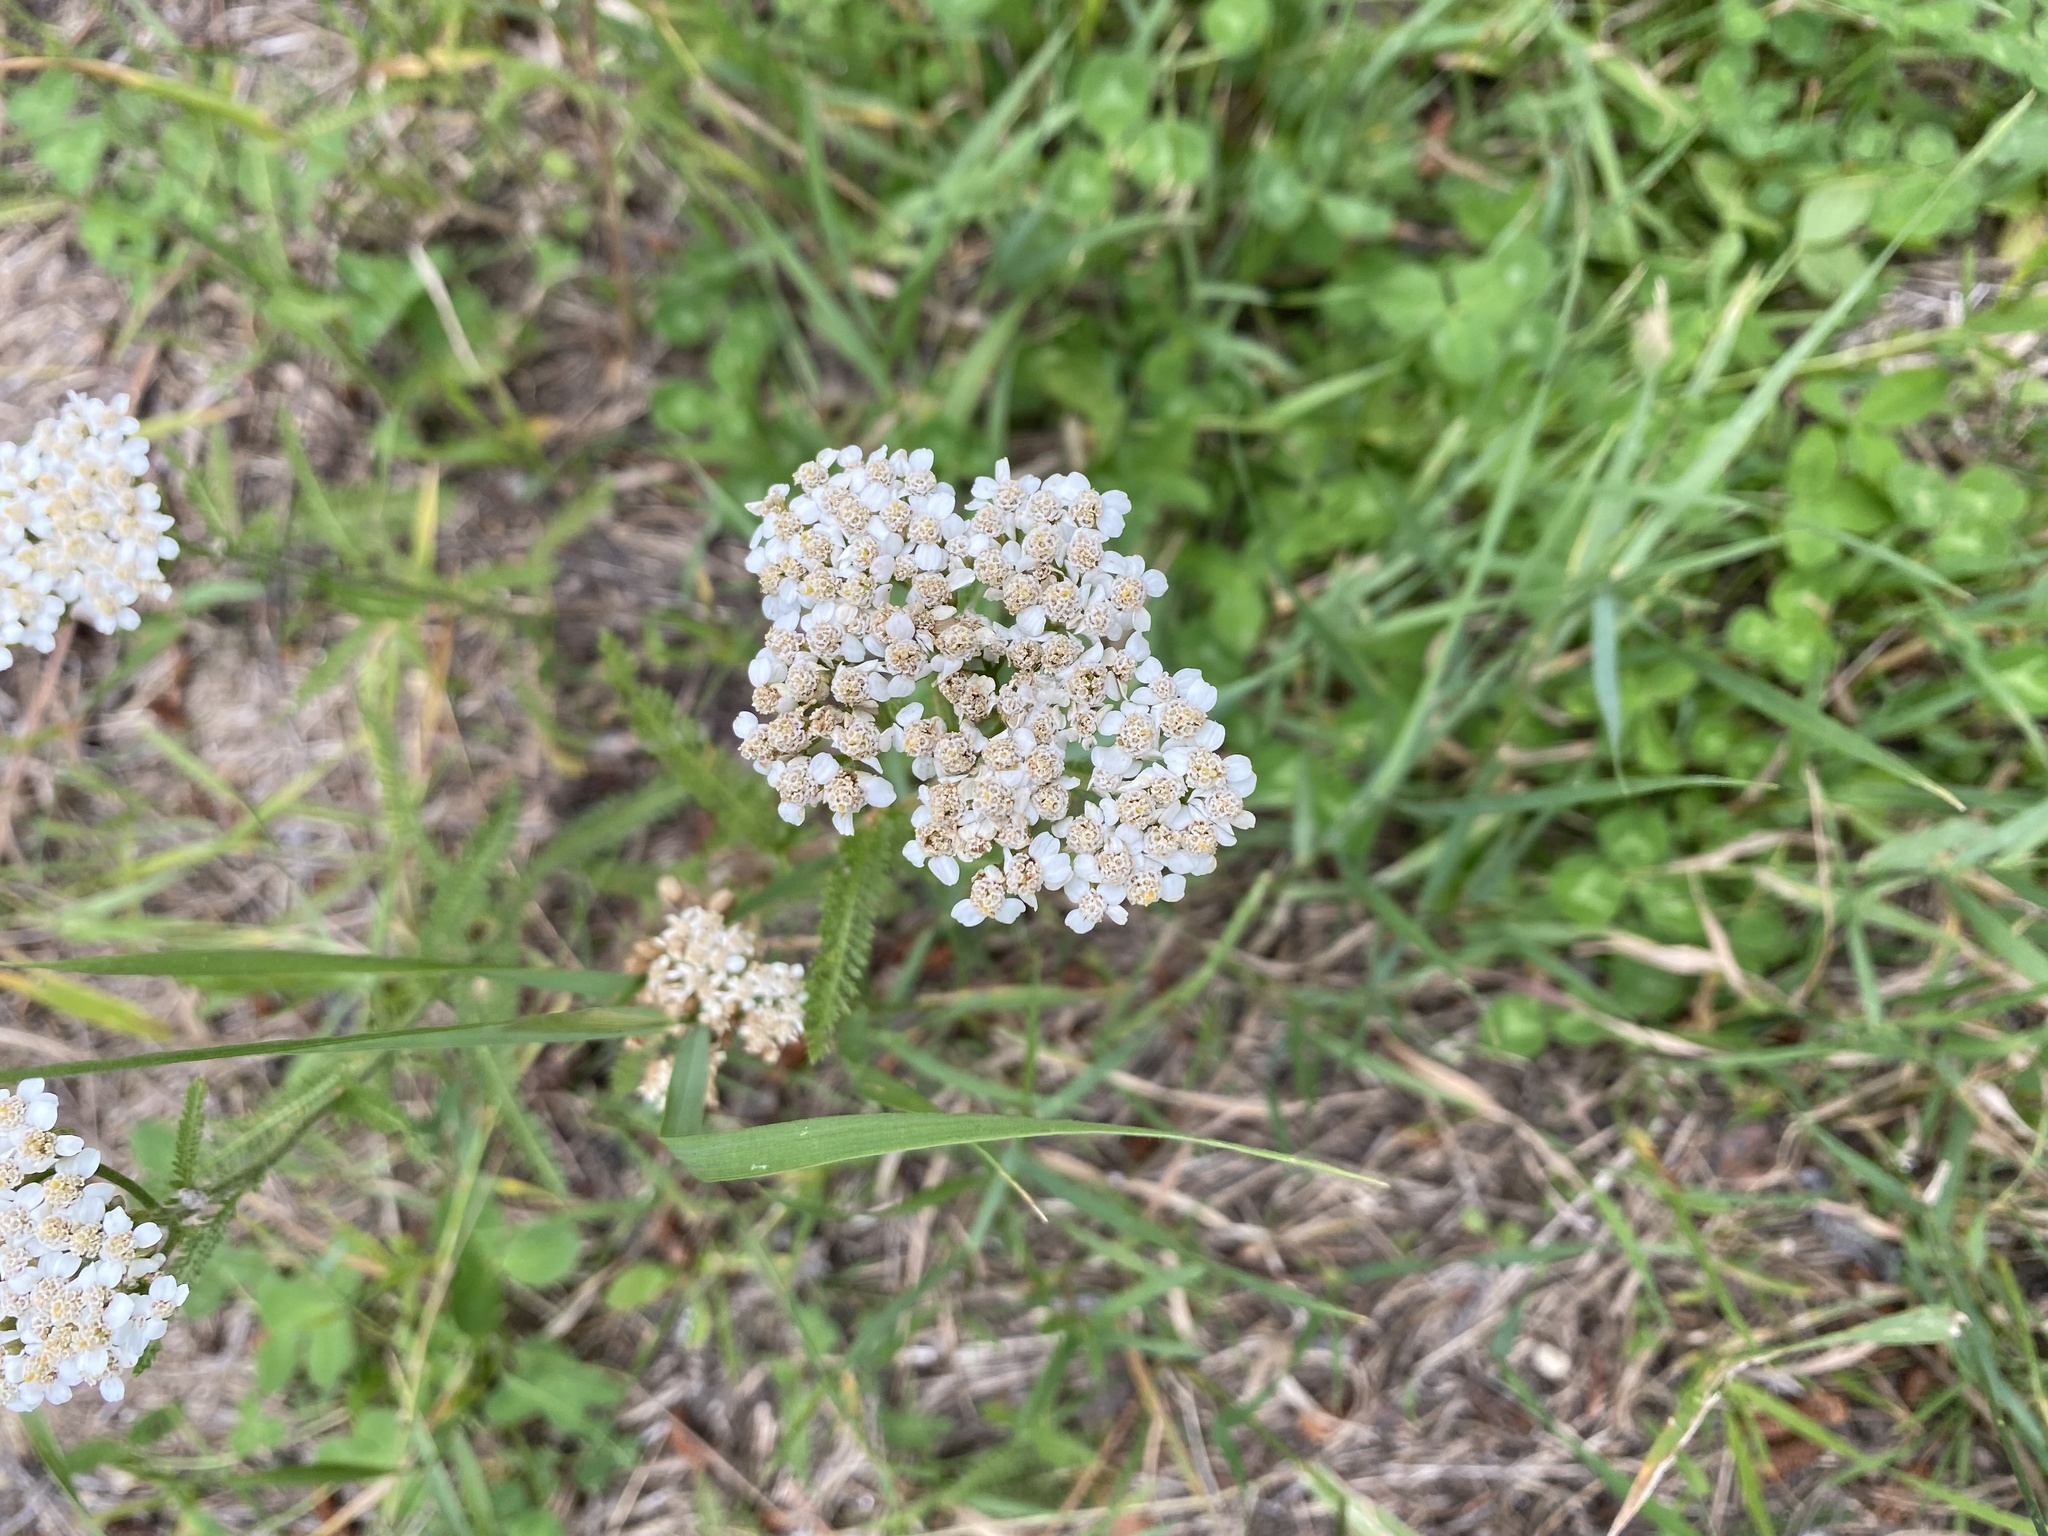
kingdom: Plantae
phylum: Tracheophyta
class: Magnoliopsida
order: Asterales
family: Asteraceae
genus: Achillea
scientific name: Achillea millefolium
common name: Yarrow
